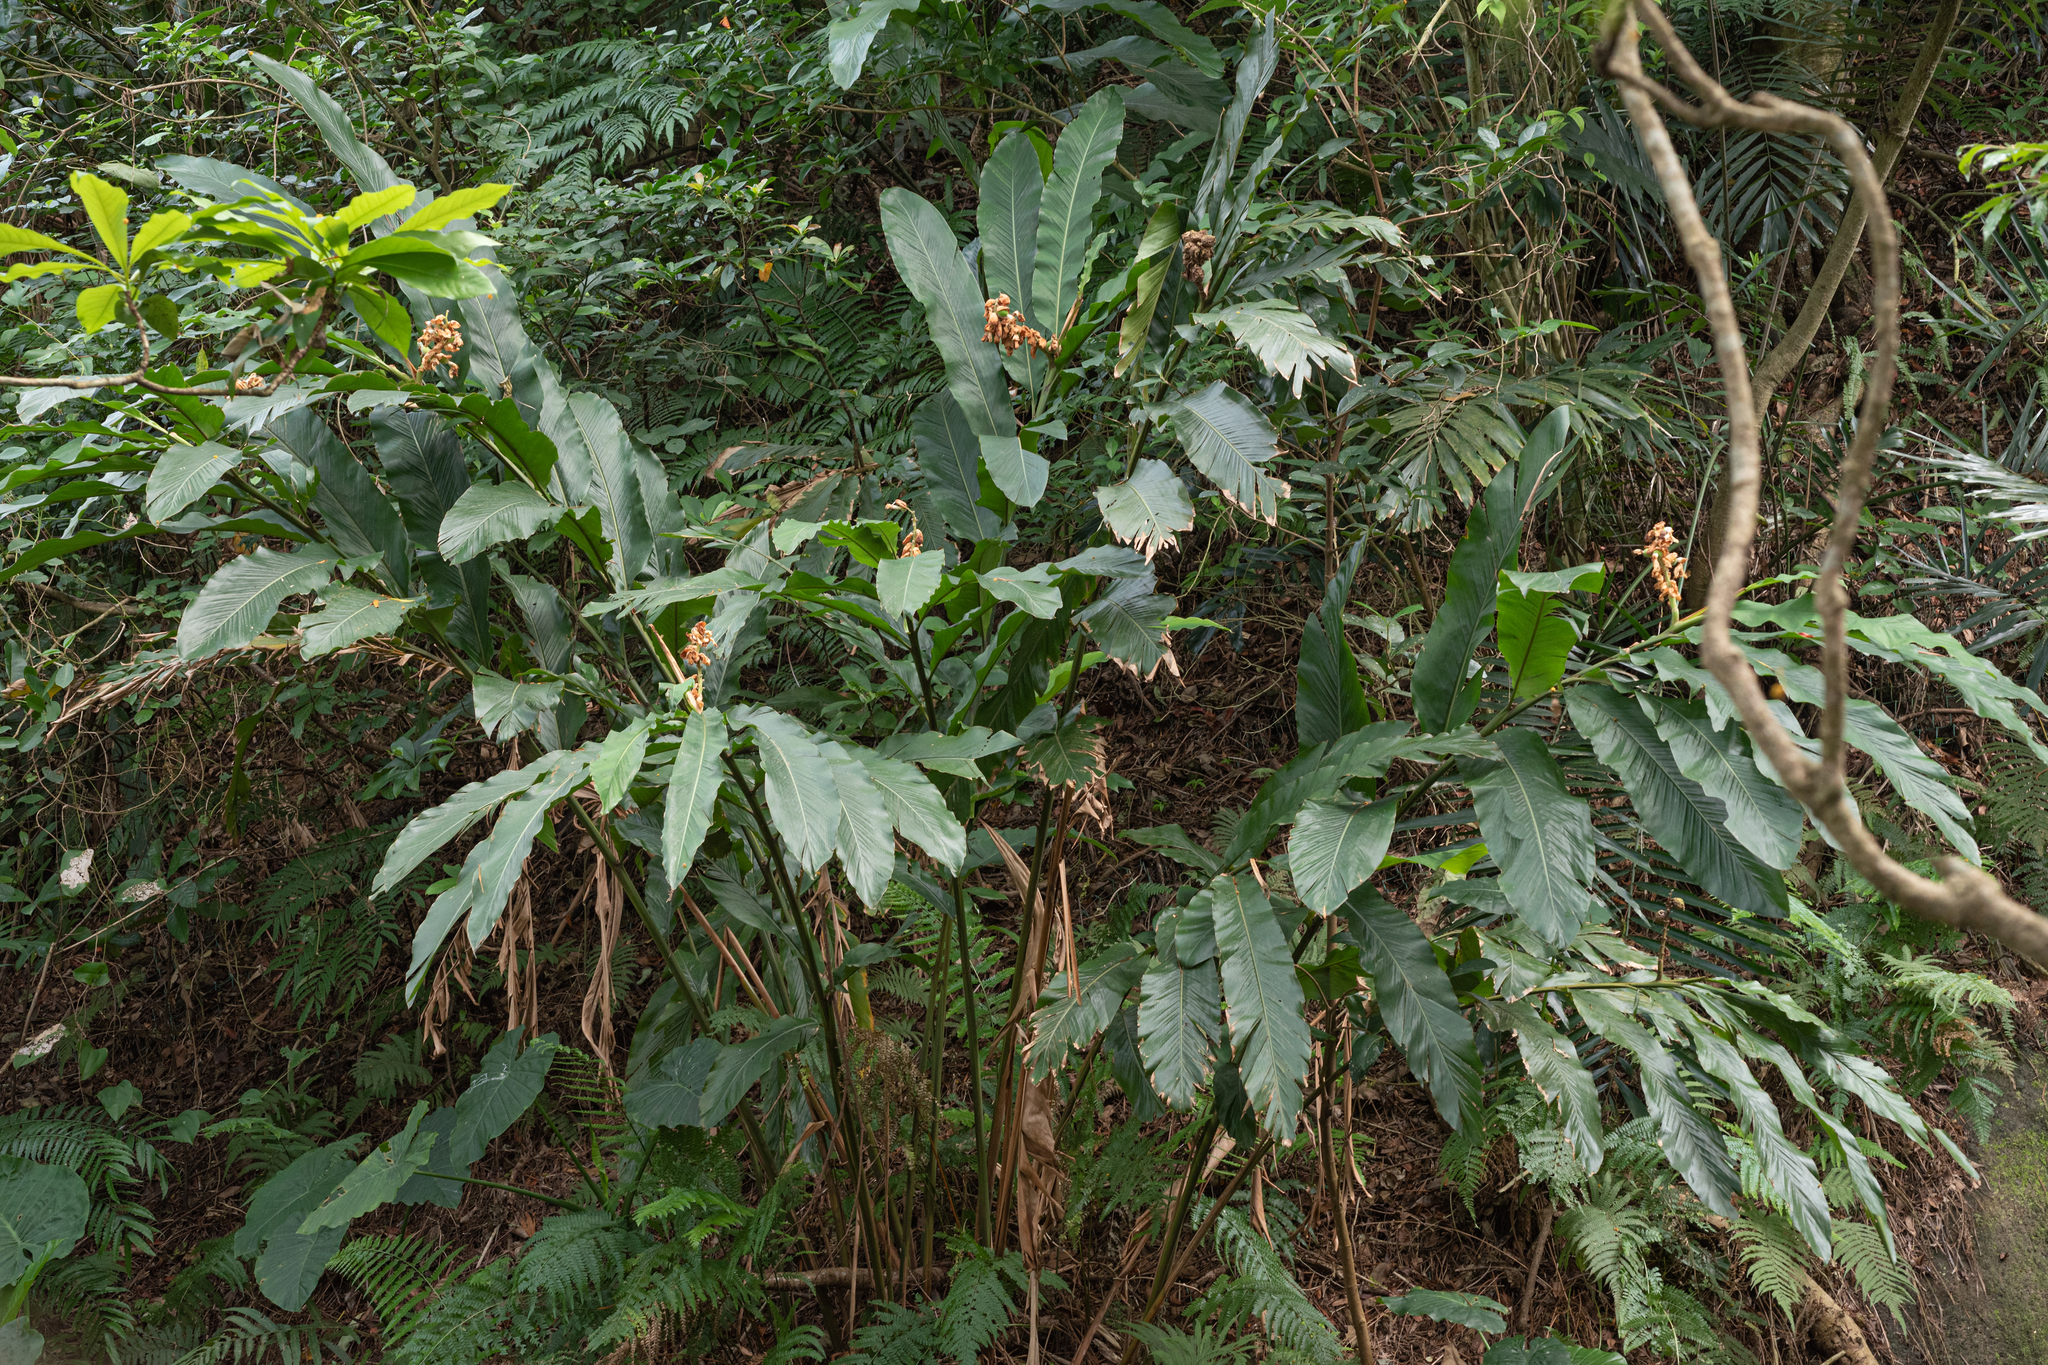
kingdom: Plantae
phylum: Tracheophyta
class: Liliopsida
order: Zingiberales
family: Zingiberaceae
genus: Alpinia
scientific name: Alpinia uraiensis
